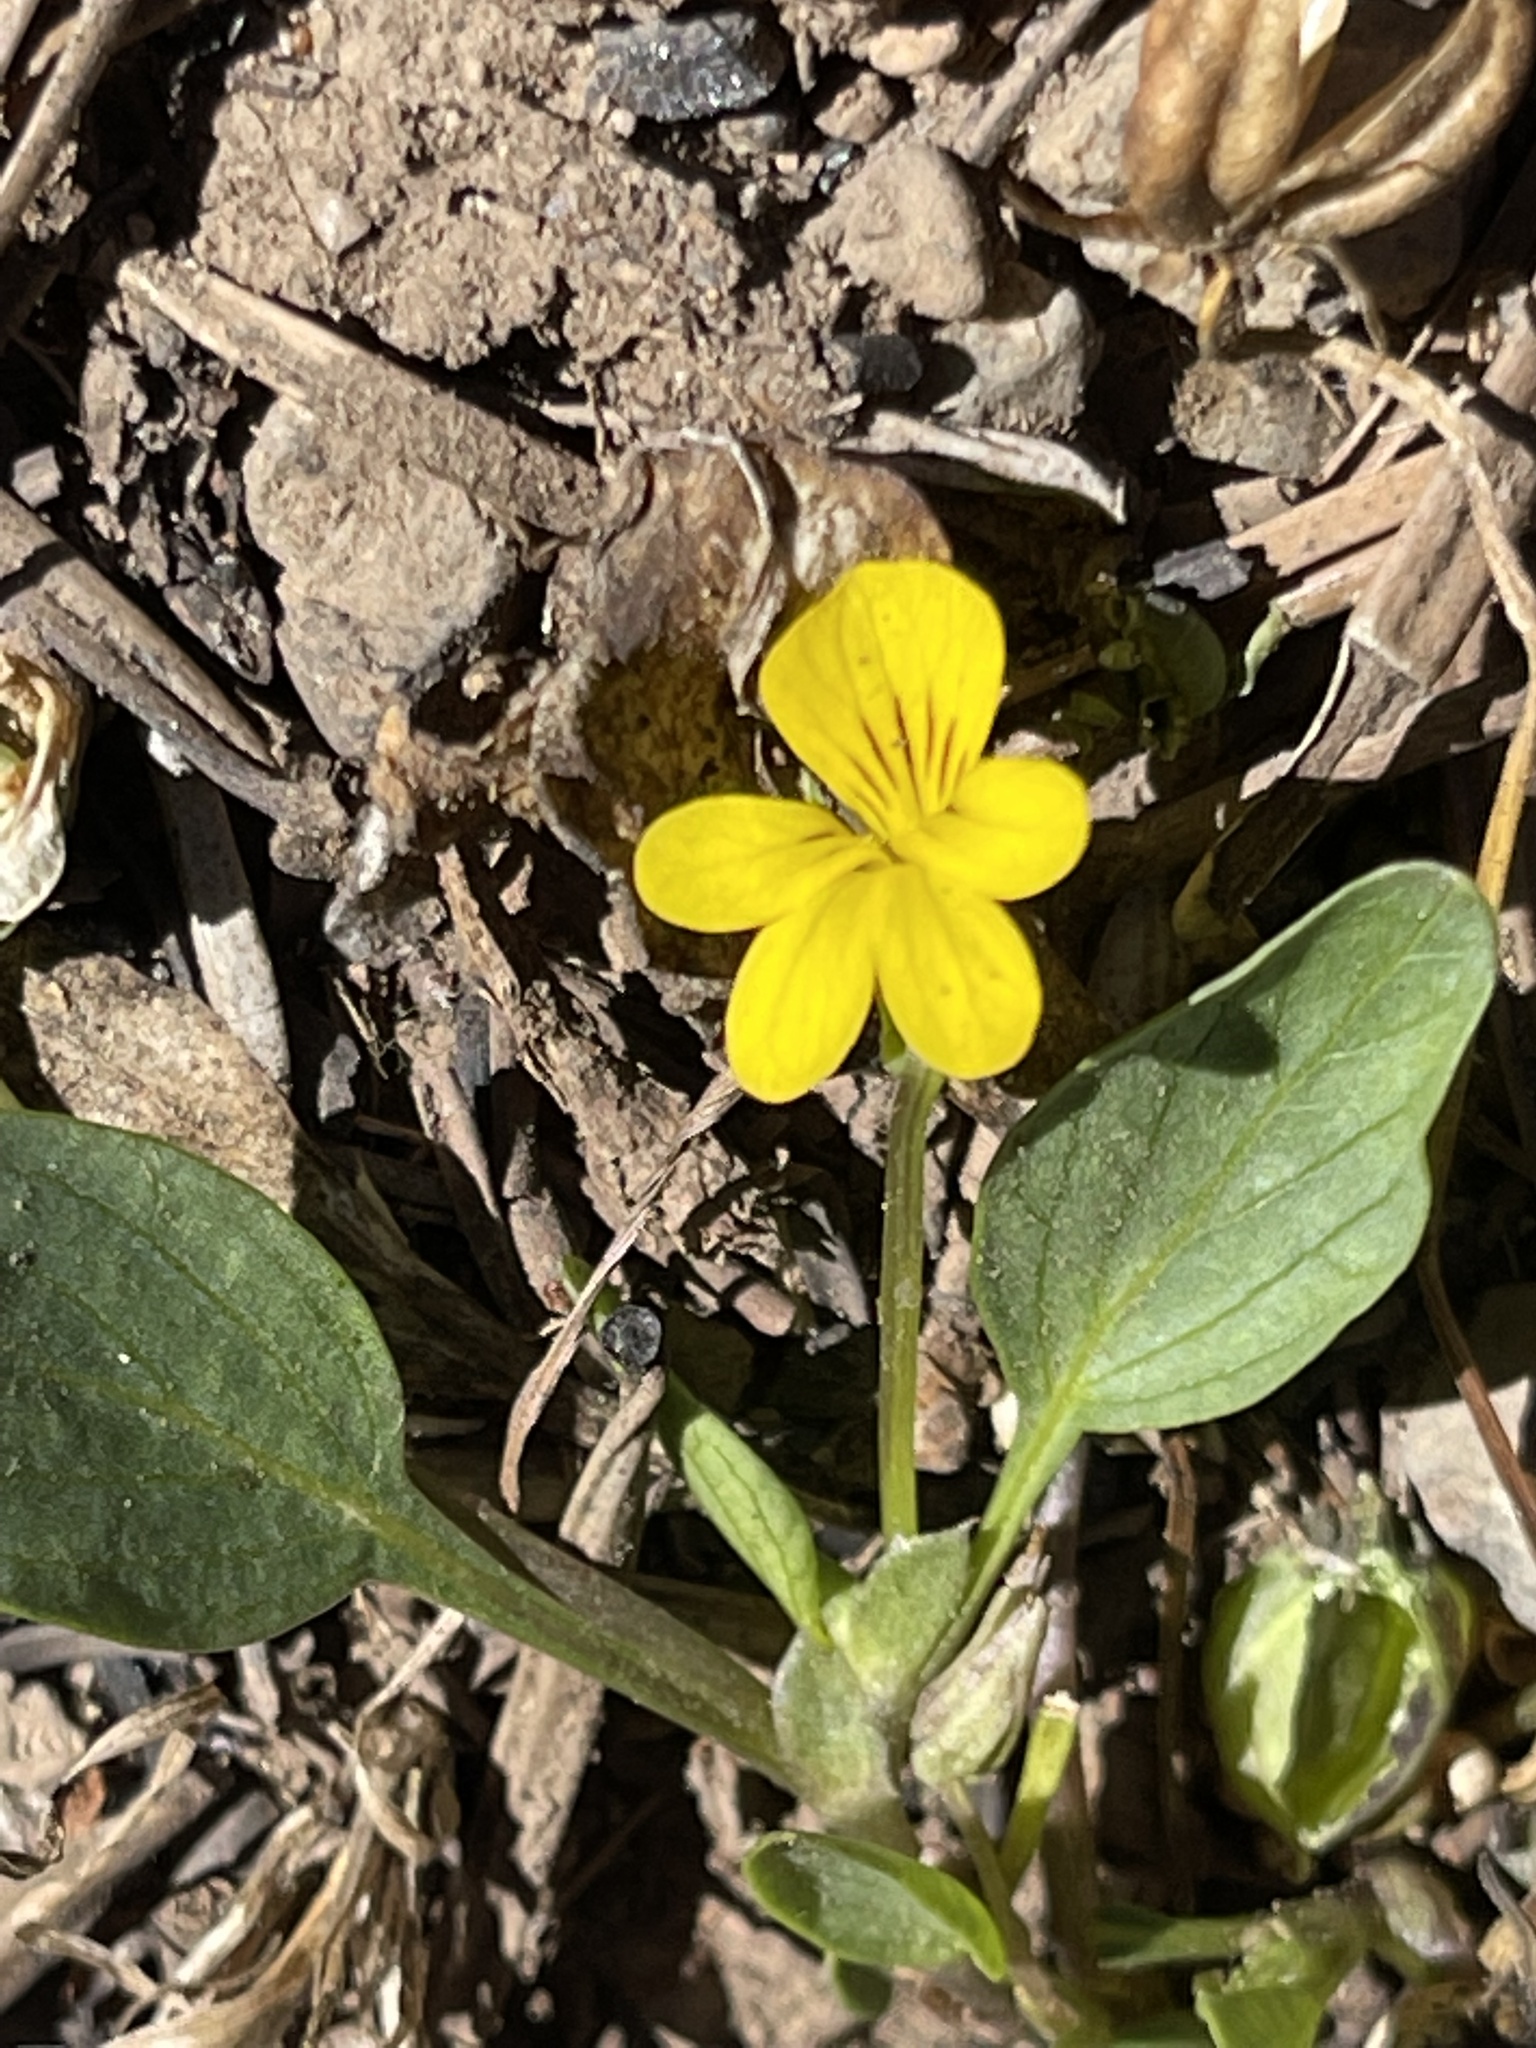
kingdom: Plantae
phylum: Tracheophyta
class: Magnoliopsida
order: Malpighiales
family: Violaceae
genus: Viola
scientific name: Viola bakeri
